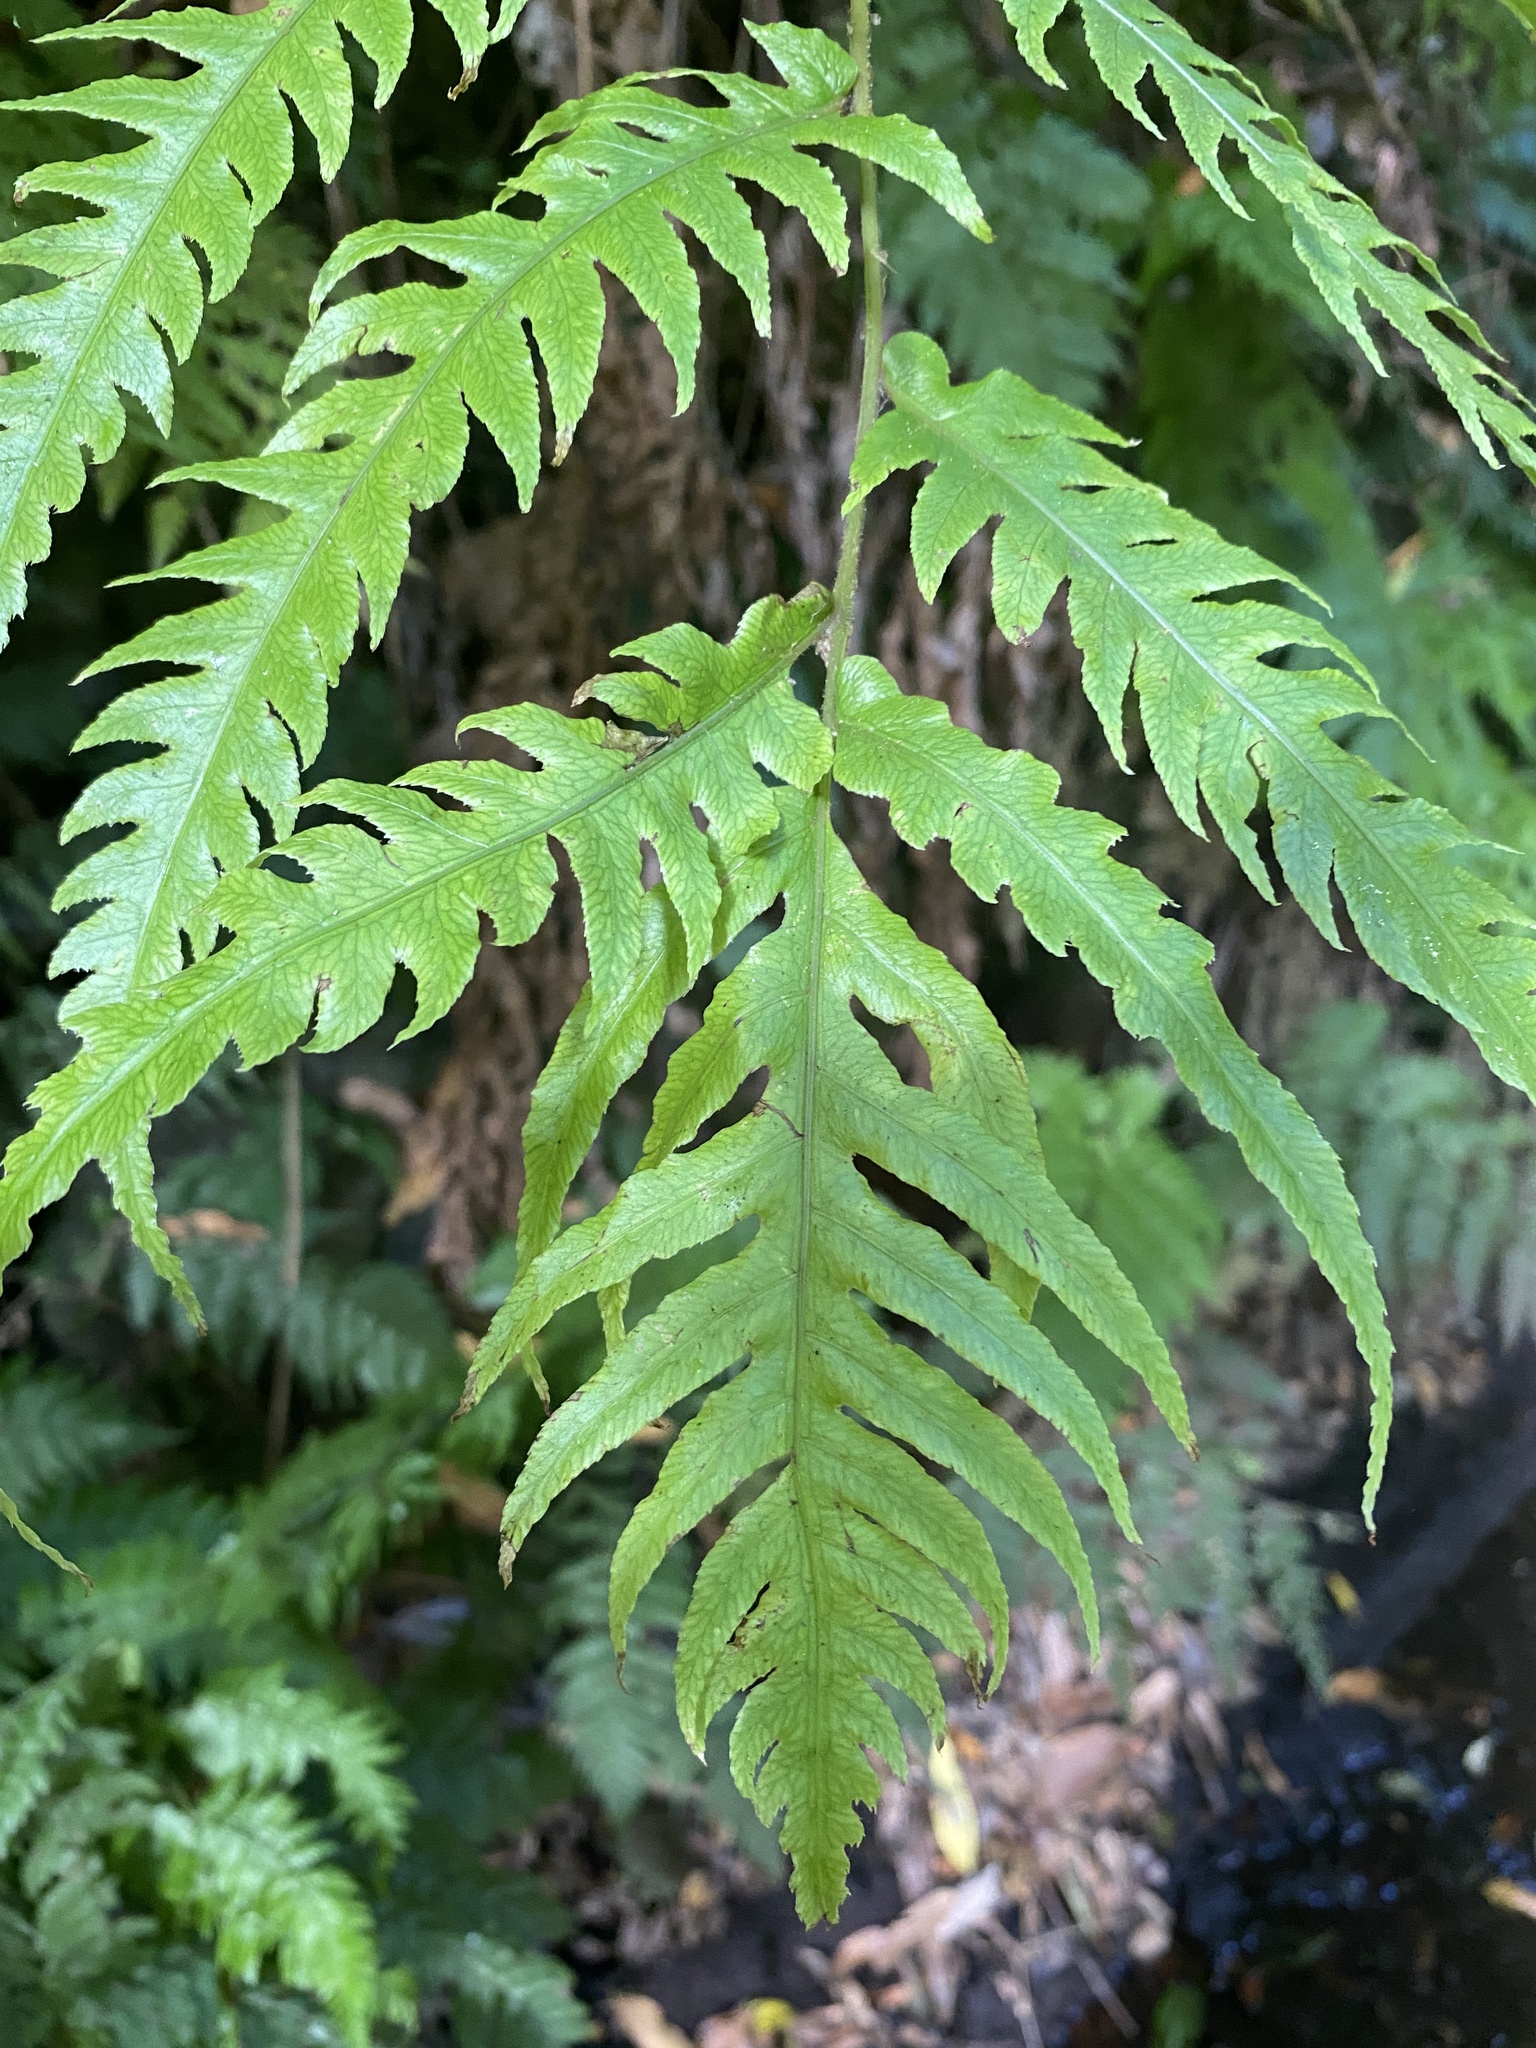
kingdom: Plantae
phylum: Tracheophyta
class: Polypodiopsida
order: Polypodiales
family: Blechnaceae
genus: Woodwardia
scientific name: Woodwardia radicans
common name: Rooting chainfern
